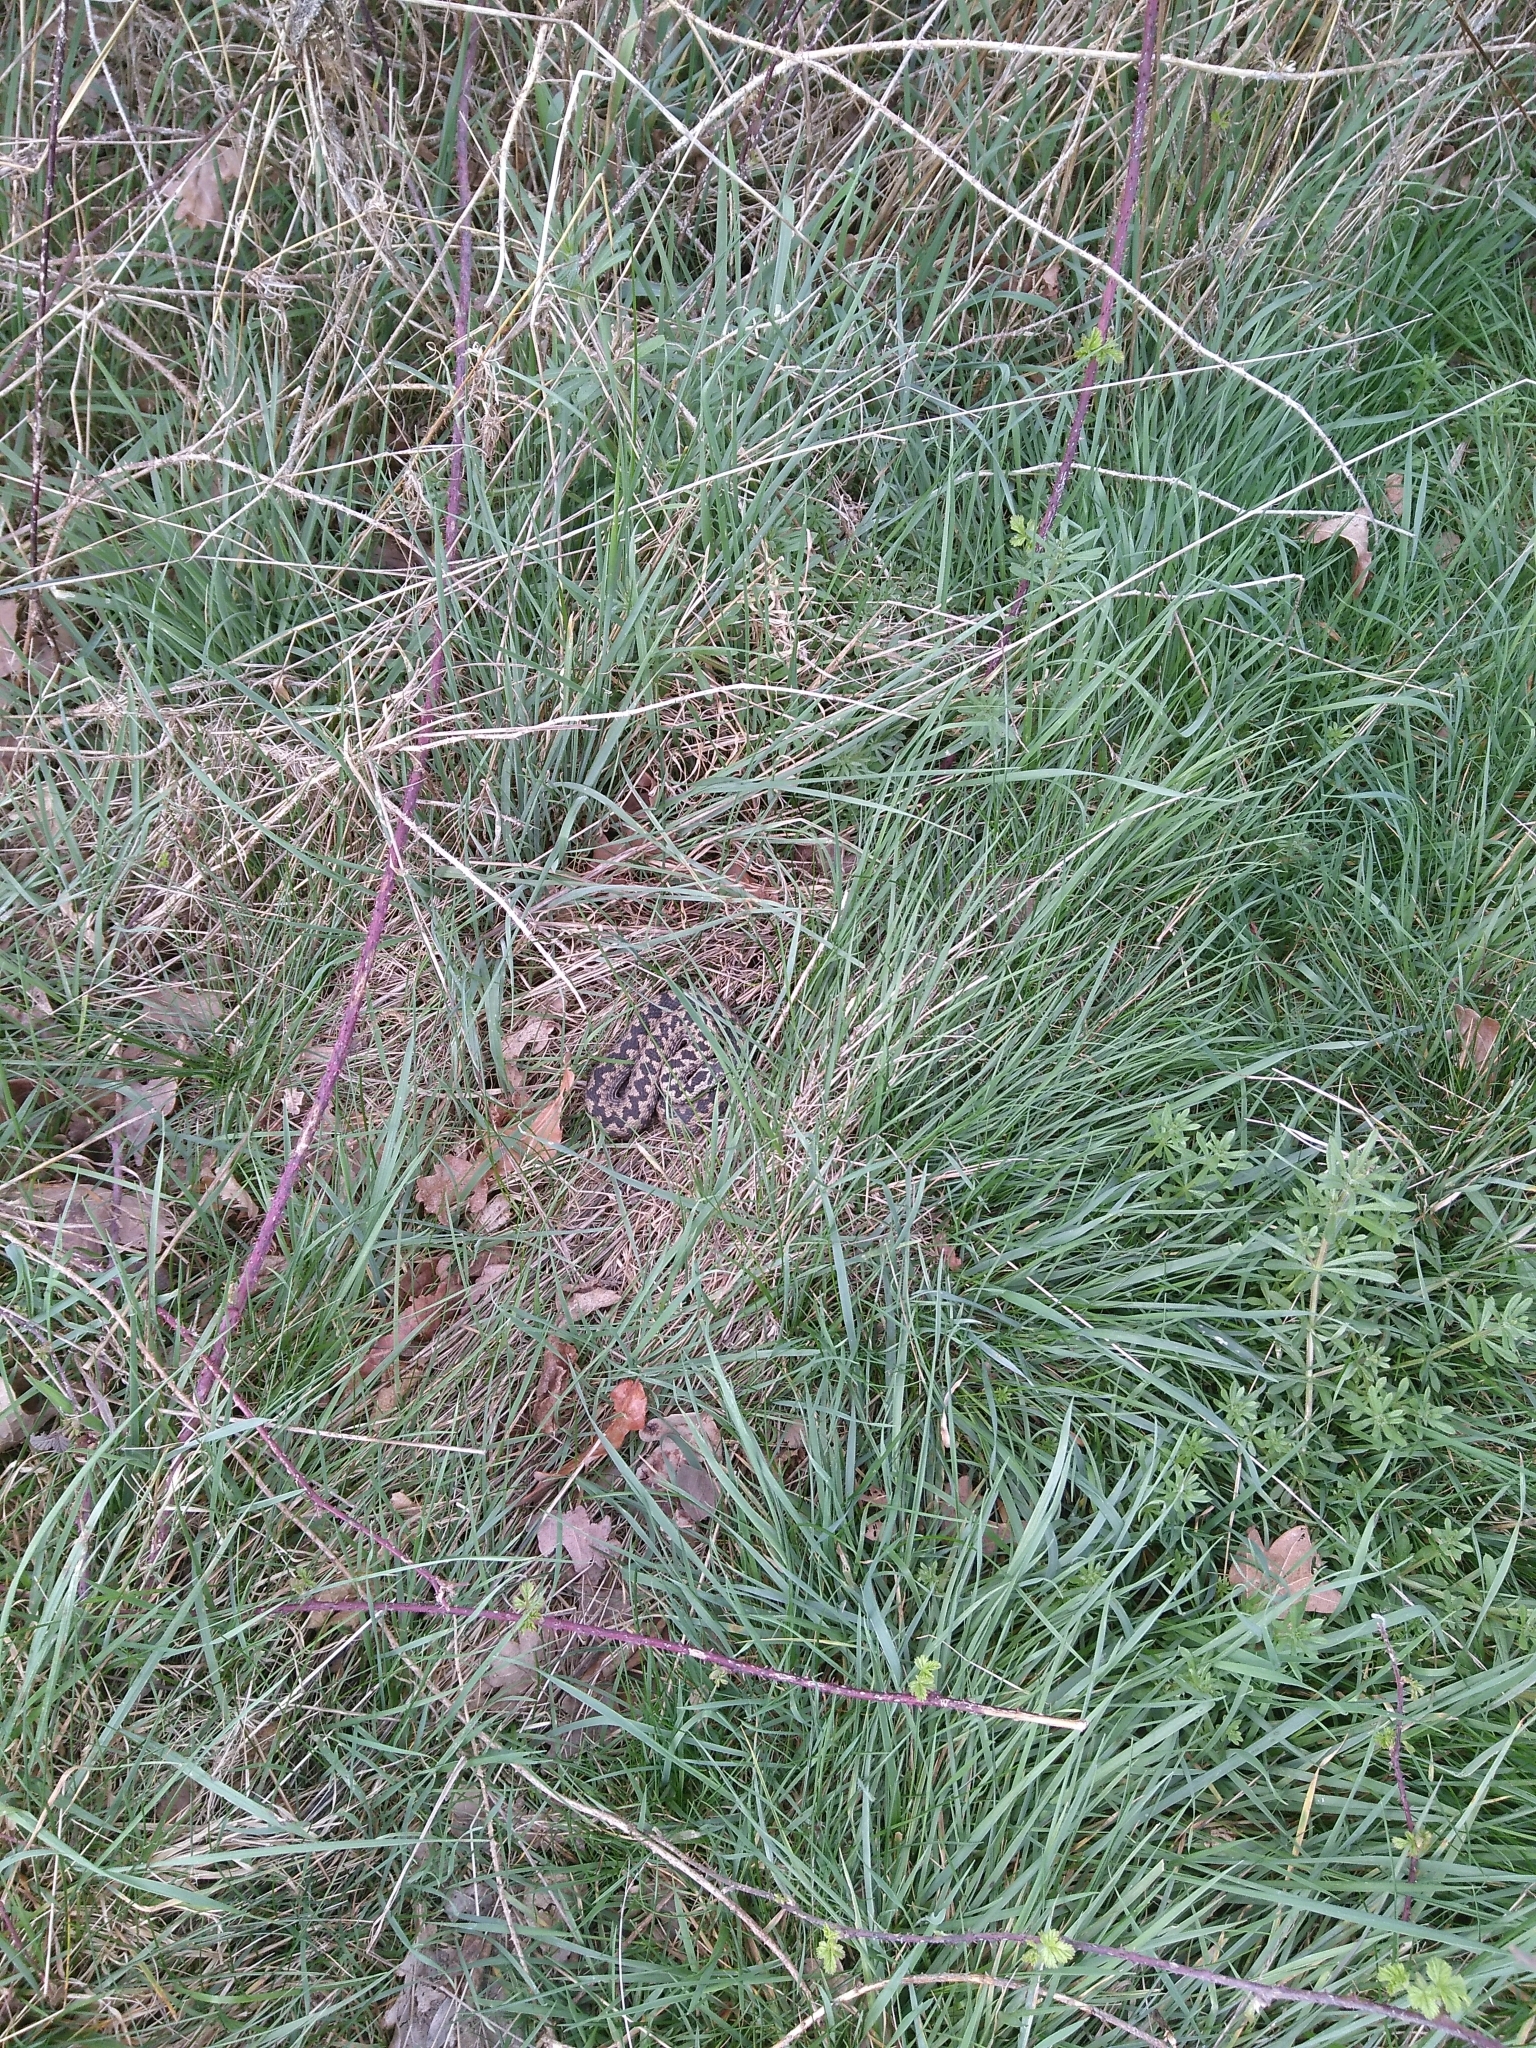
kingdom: Animalia
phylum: Chordata
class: Squamata
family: Viperidae
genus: Vipera
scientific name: Vipera berus
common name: Adder
